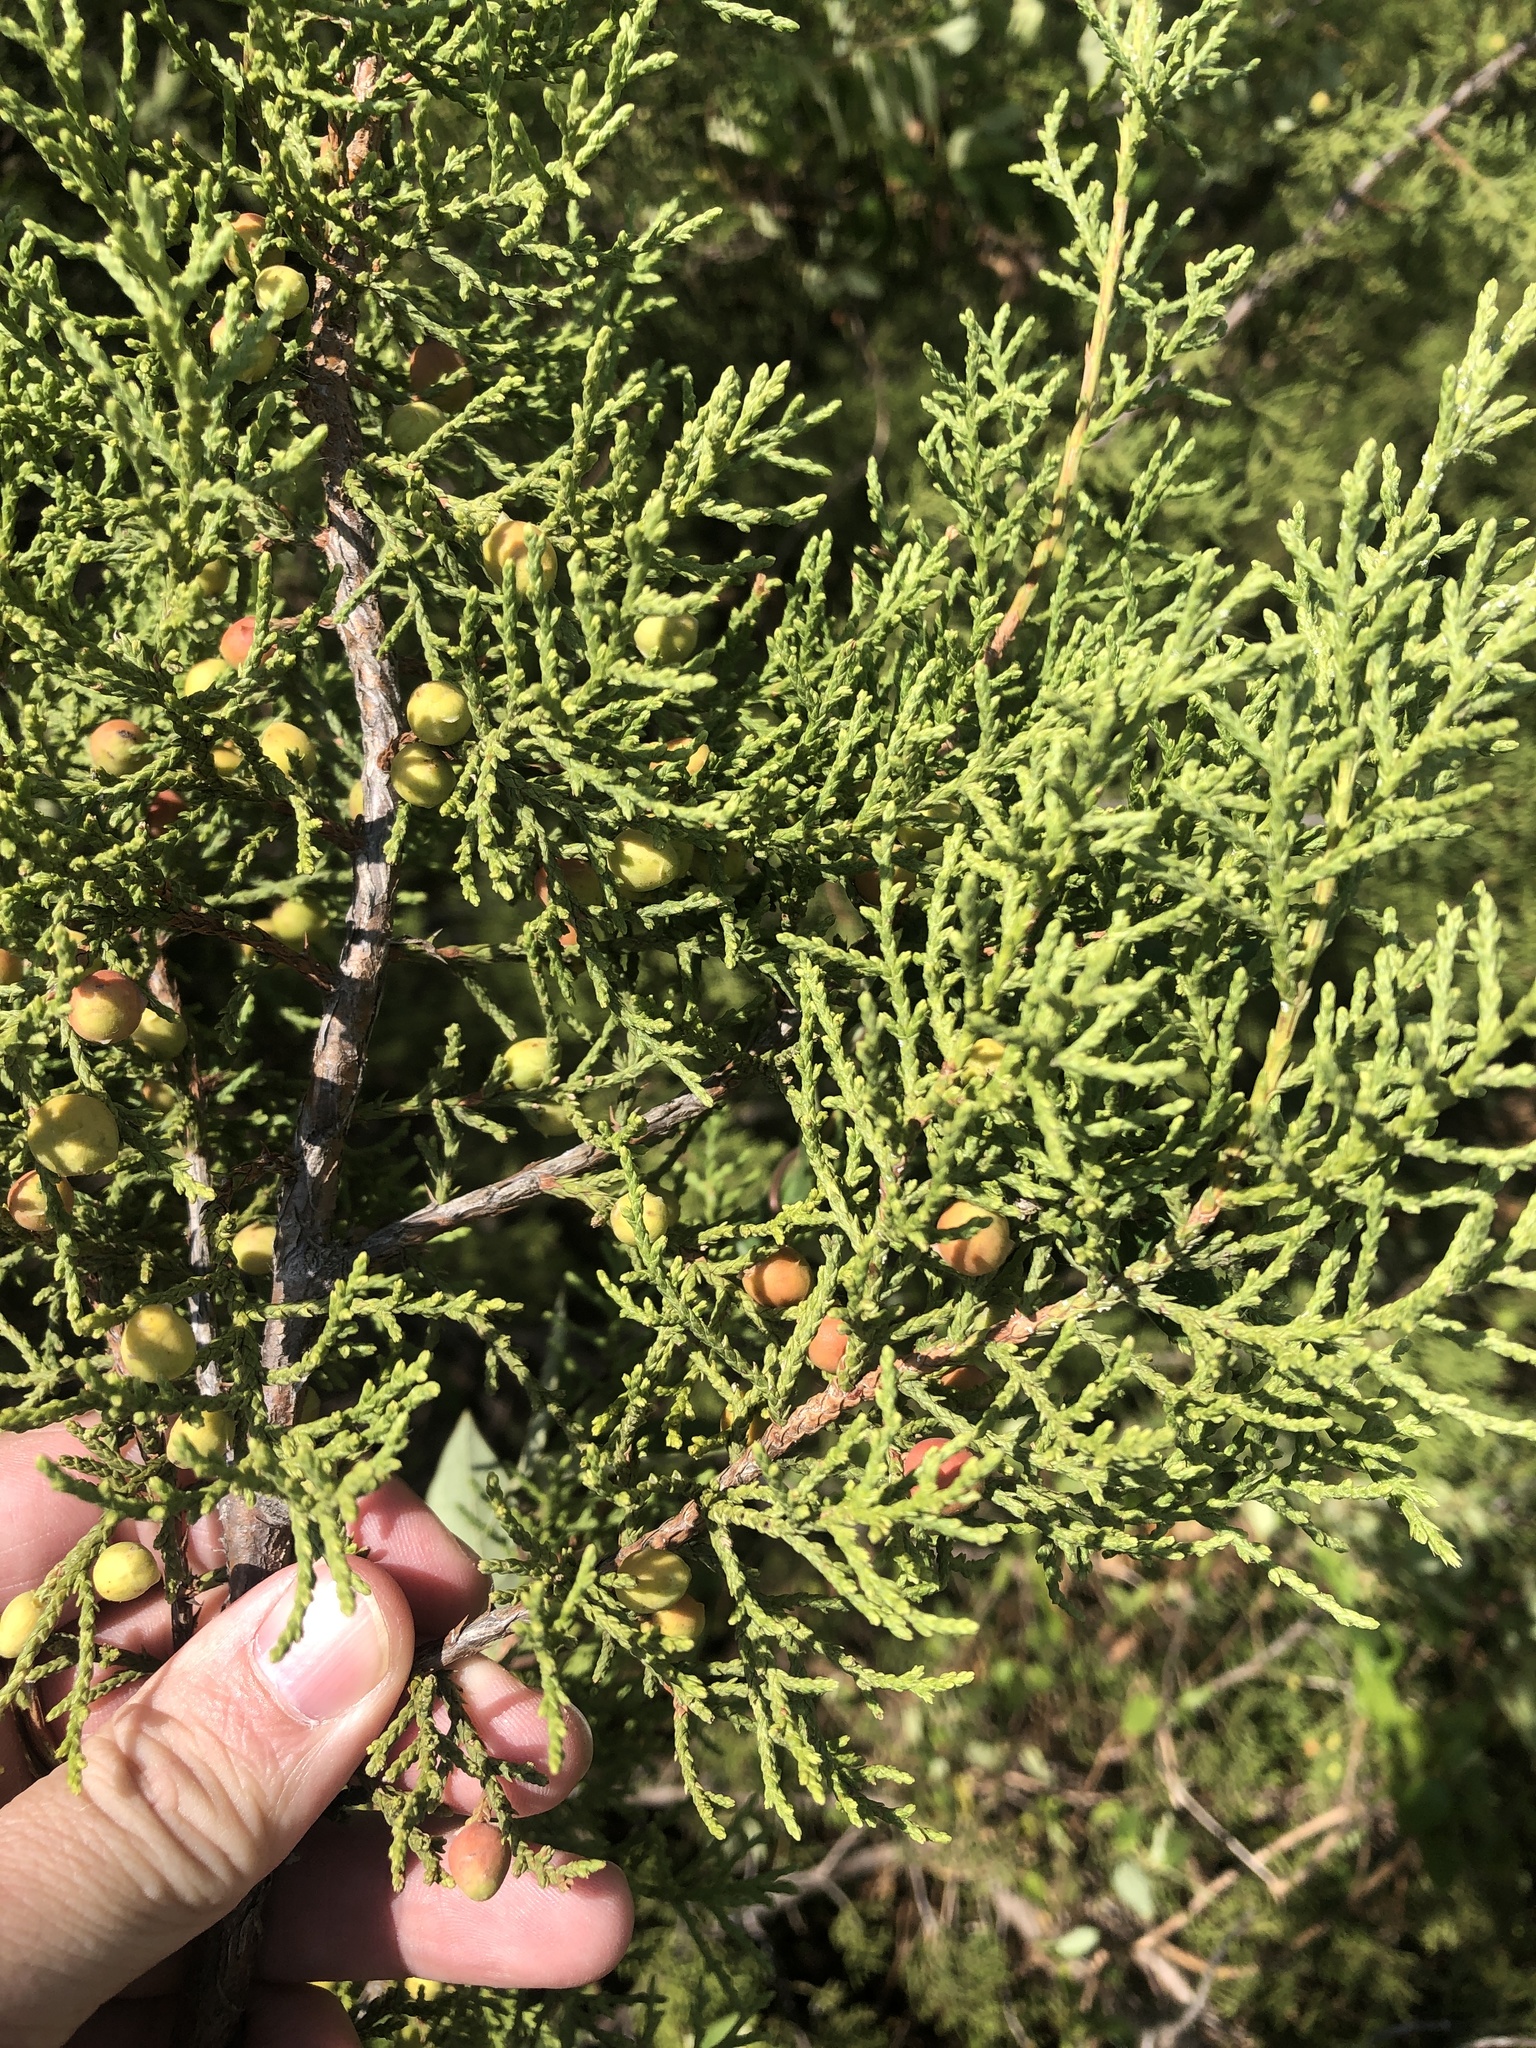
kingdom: Plantae
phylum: Tracheophyta
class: Pinopsida
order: Pinales
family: Cupressaceae
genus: Juniperus
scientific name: Juniperus pinchotii
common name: Pinchot juniper
